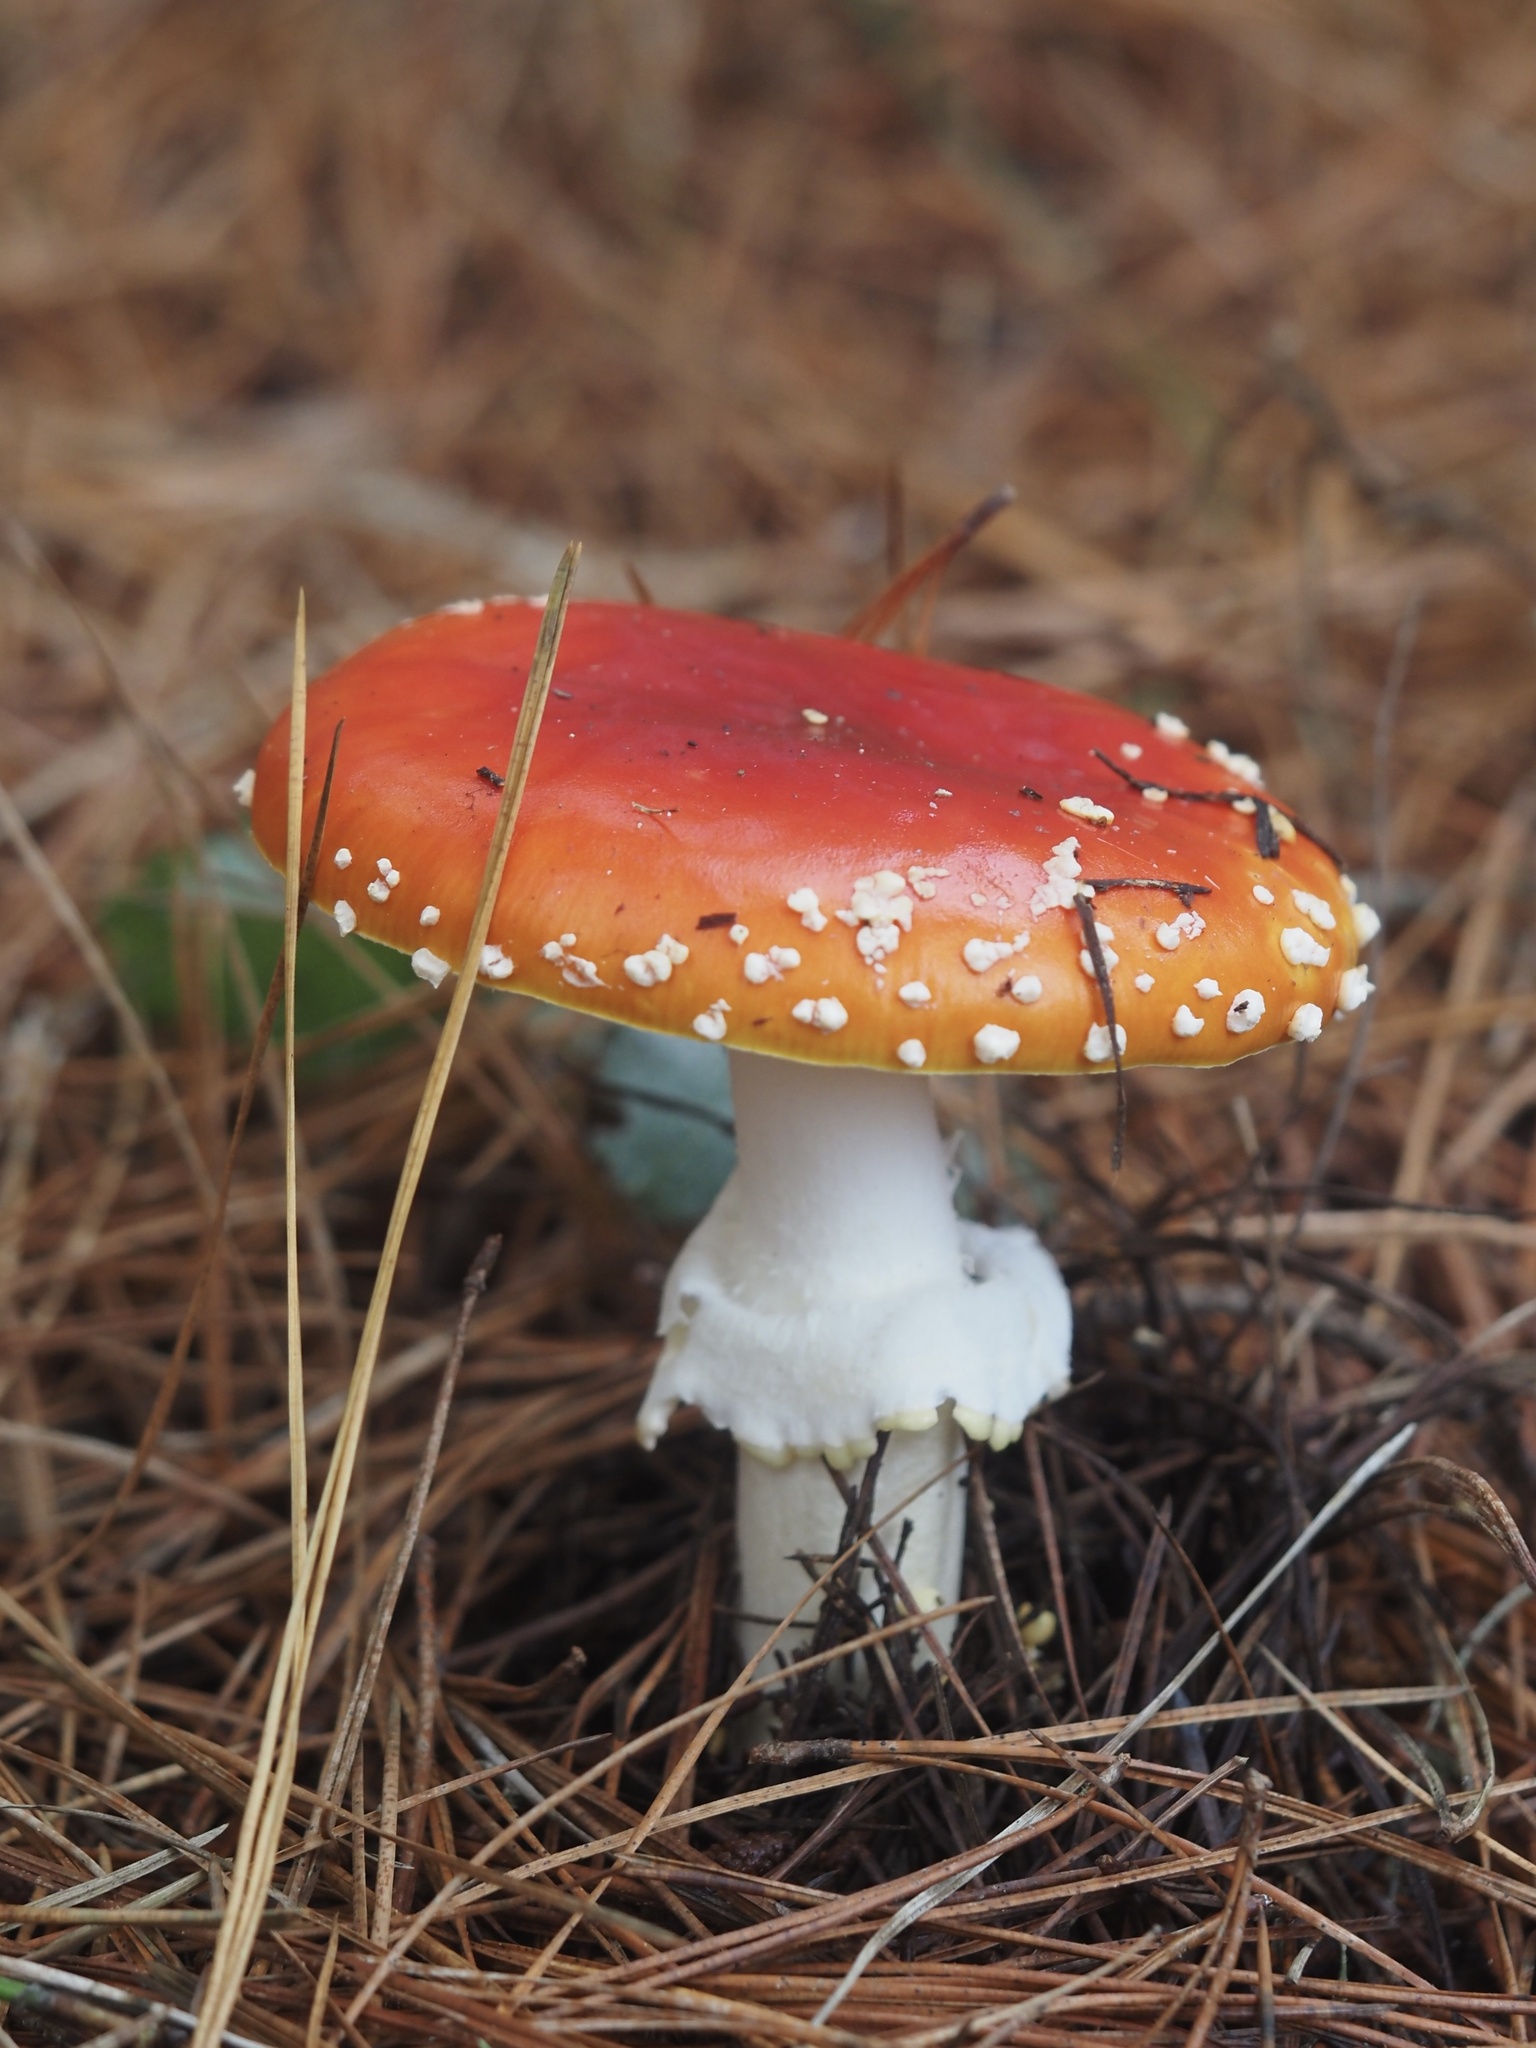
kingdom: Fungi
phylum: Basidiomycota
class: Agaricomycetes
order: Agaricales
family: Amanitaceae
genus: Amanita
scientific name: Amanita muscaria
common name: Fly agaric
